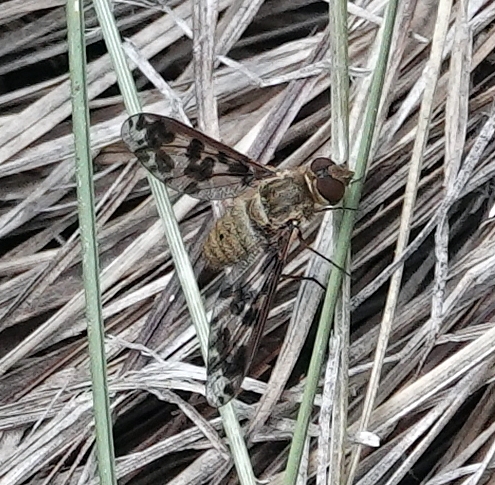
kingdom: Animalia
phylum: Arthropoda
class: Insecta
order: Diptera
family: Bombyliidae
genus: Dipalta
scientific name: Dipalta serpentina
